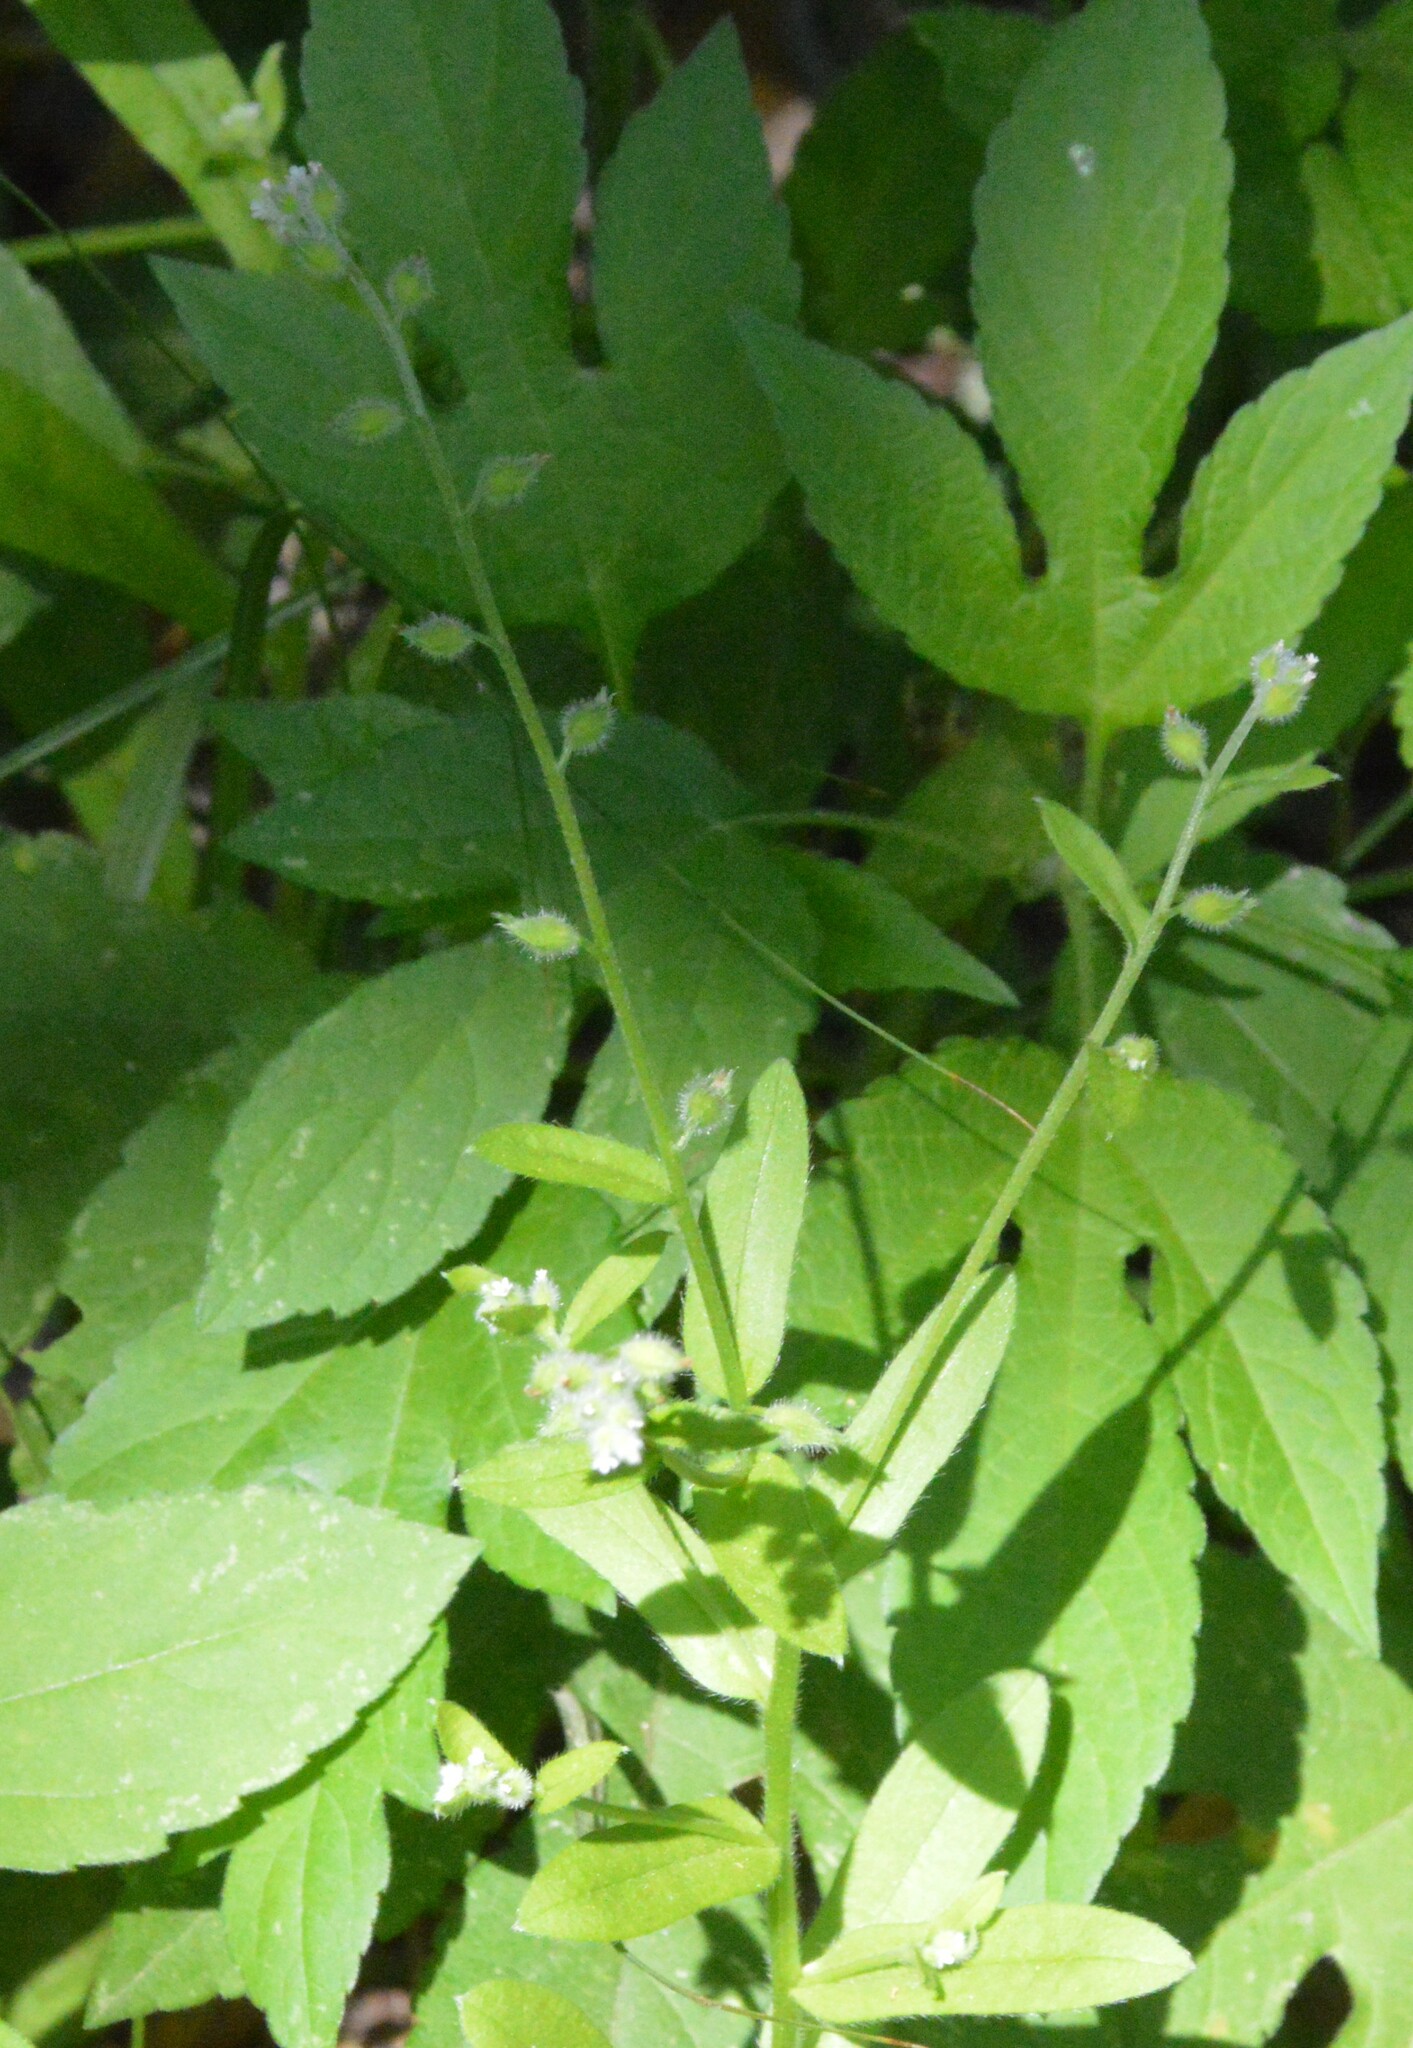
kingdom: Plantae
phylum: Tracheophyta
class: Magnoliopsida
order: Boraginales
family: Boraginaceae
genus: Myosotis
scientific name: Myosotis macrosperma
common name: Large-seed forget-me-not
